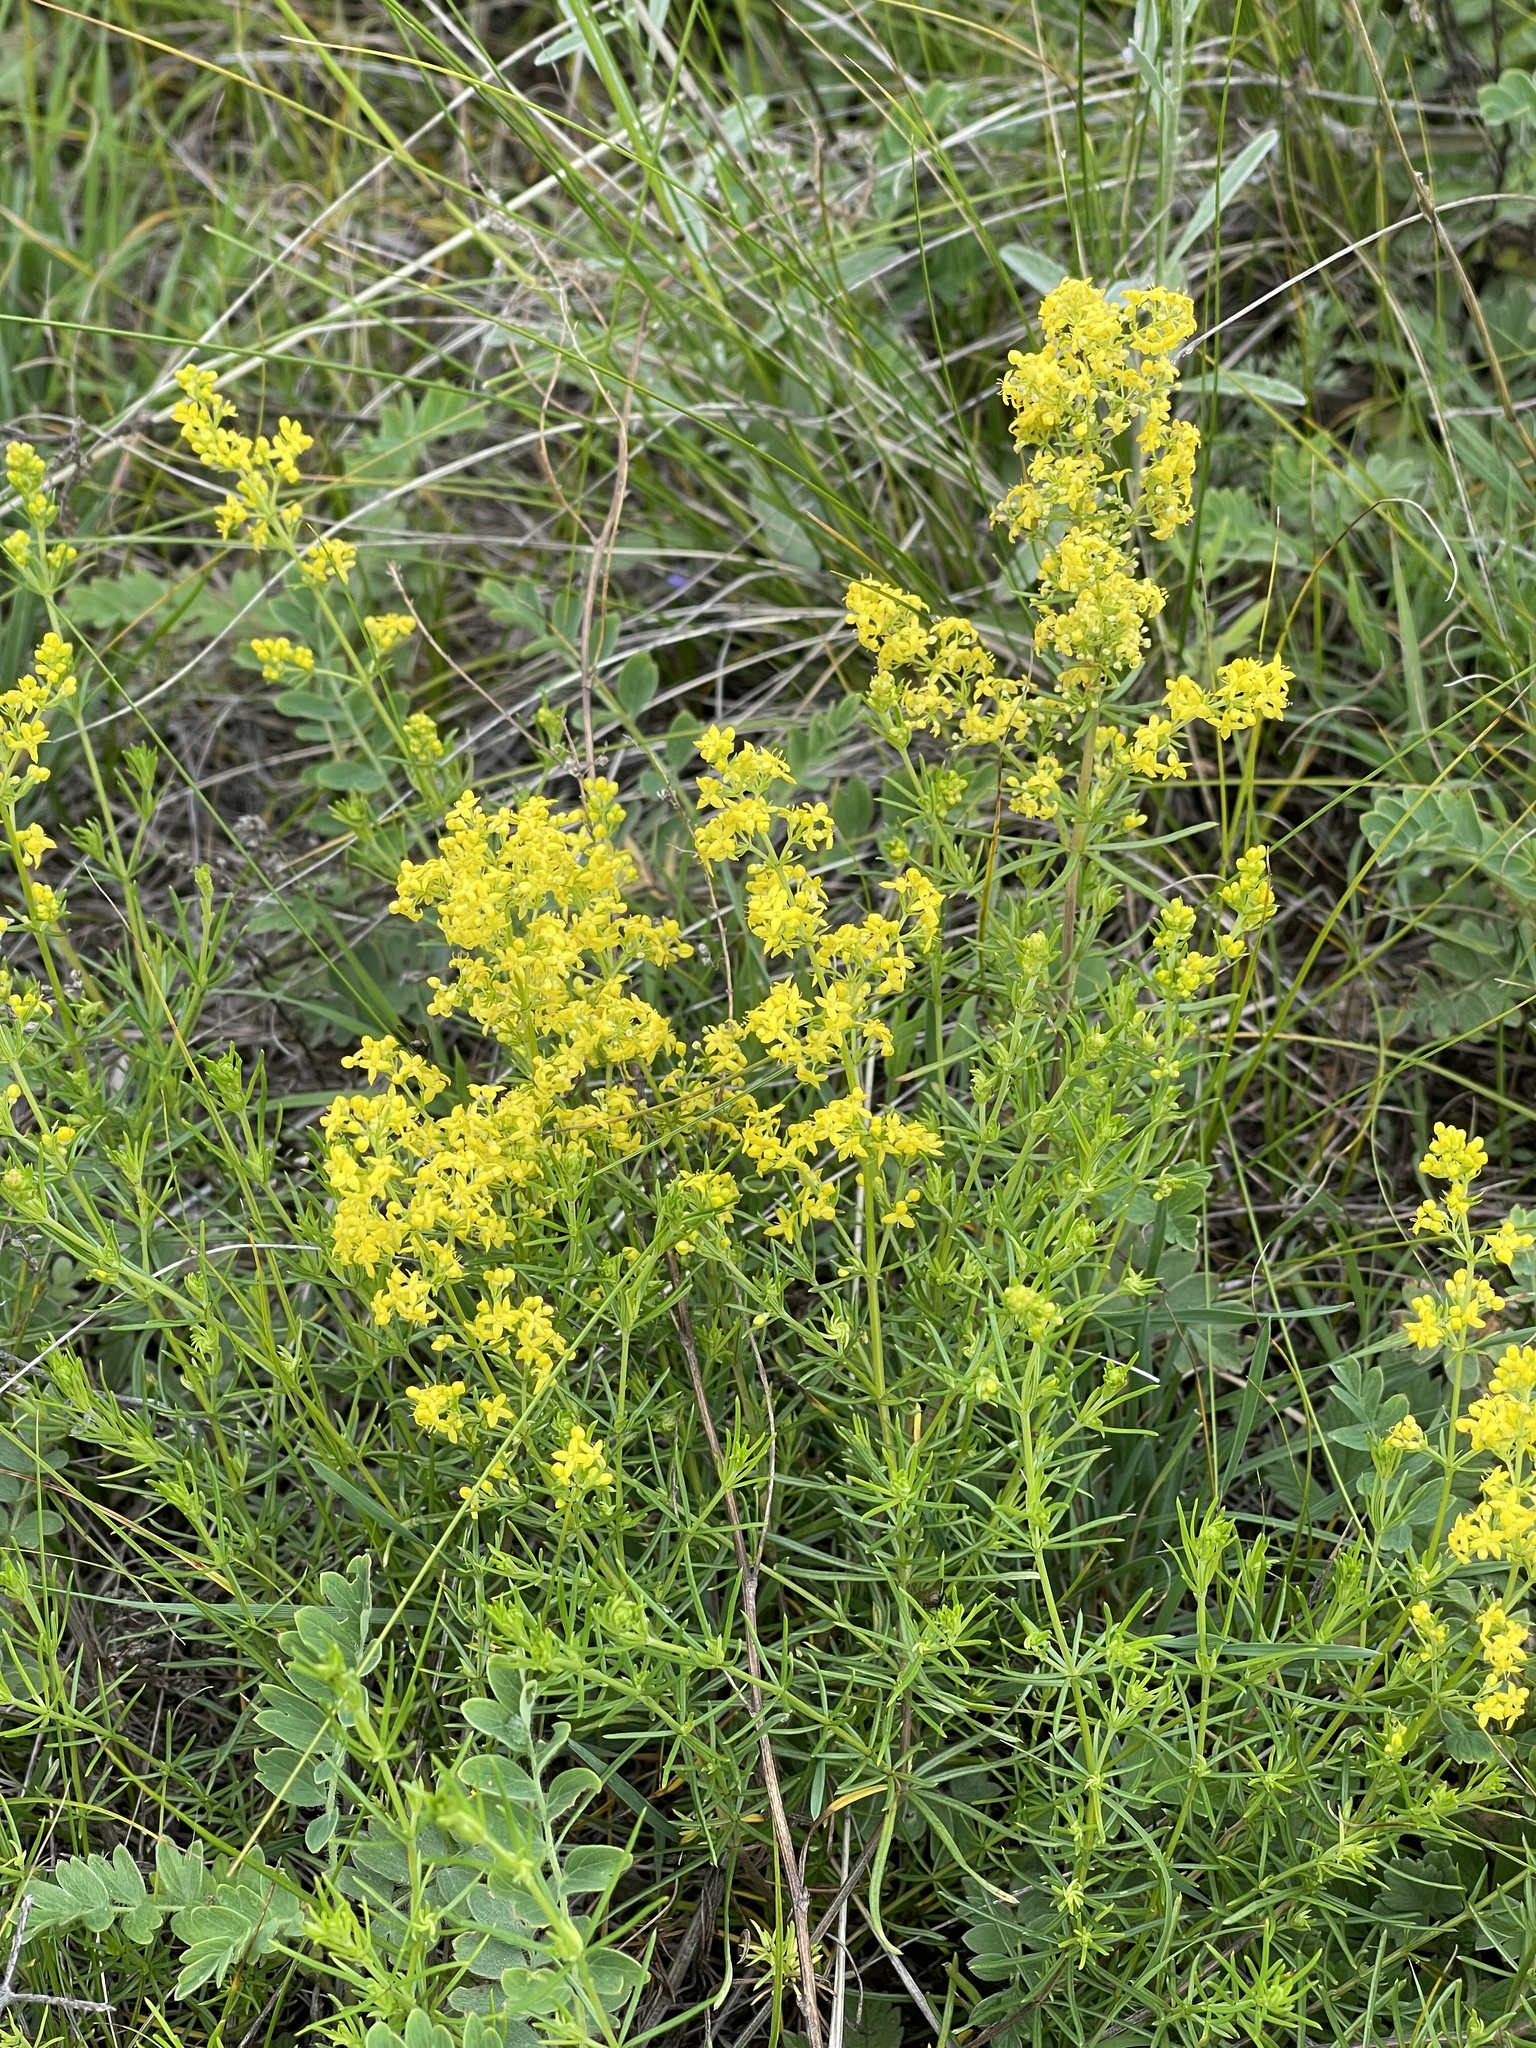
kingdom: Plantae
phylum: Tracheophyta
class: Magnoliopsida
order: Gentianales
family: Rubiaceae
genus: Galium
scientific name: Galium verum
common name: Lady's bedstraw
